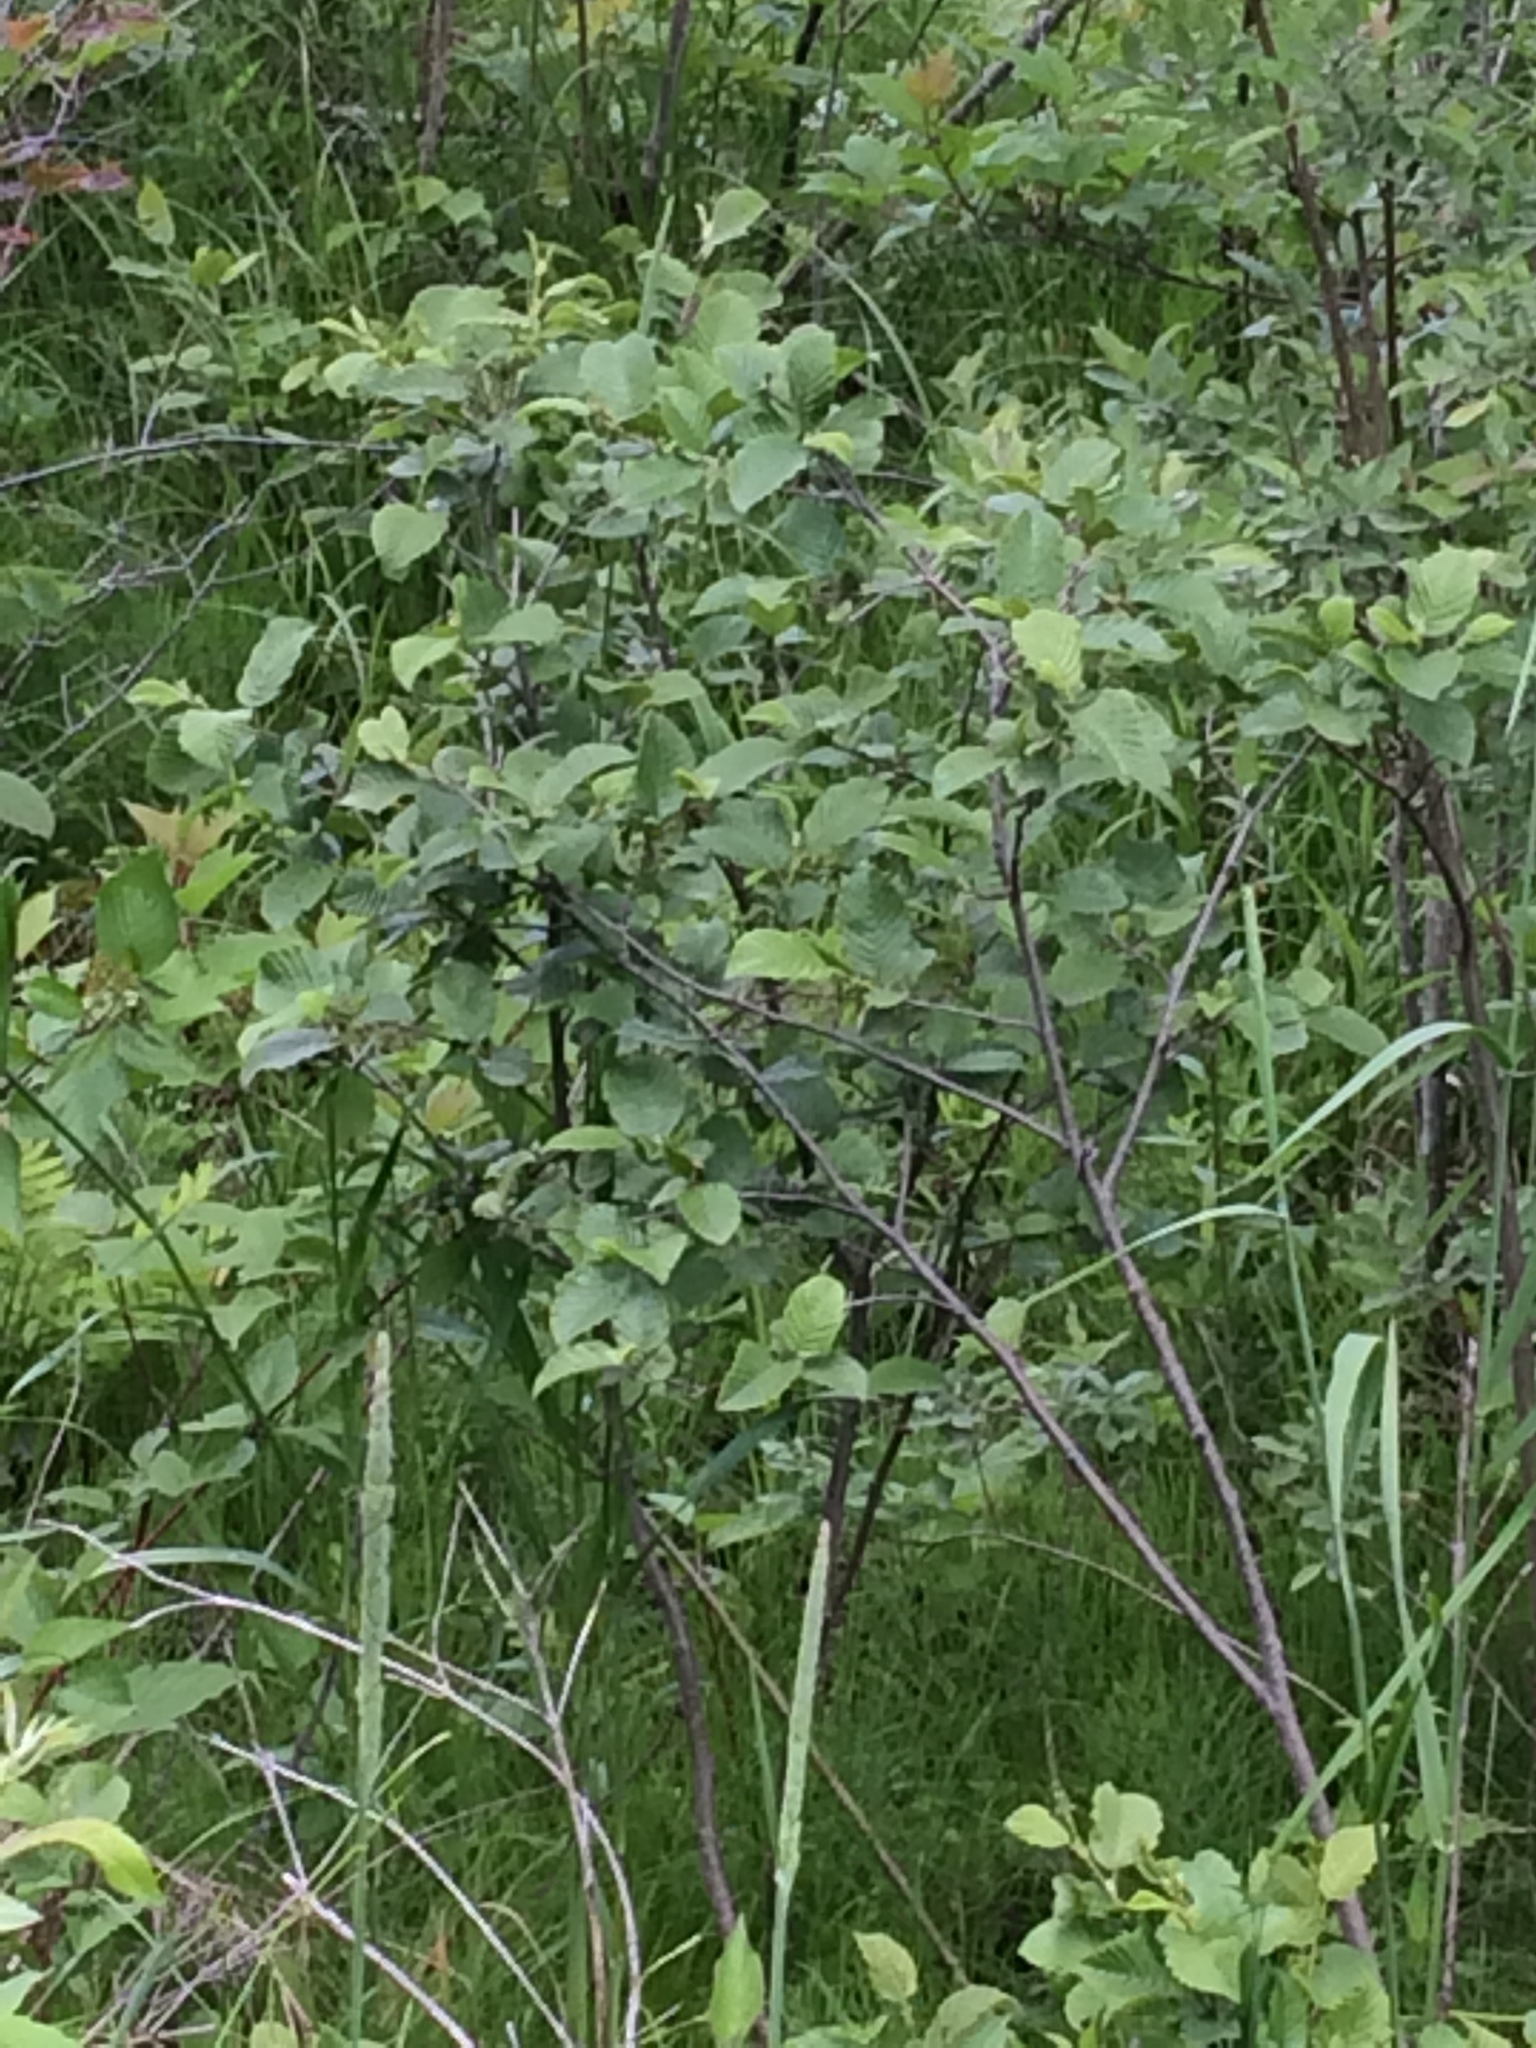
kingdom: Plantae
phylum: Tracheophyta
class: Magnoliopsida
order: Fagales
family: Betulaceae
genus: Alnus
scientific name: Alnus incana
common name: Grey alder
